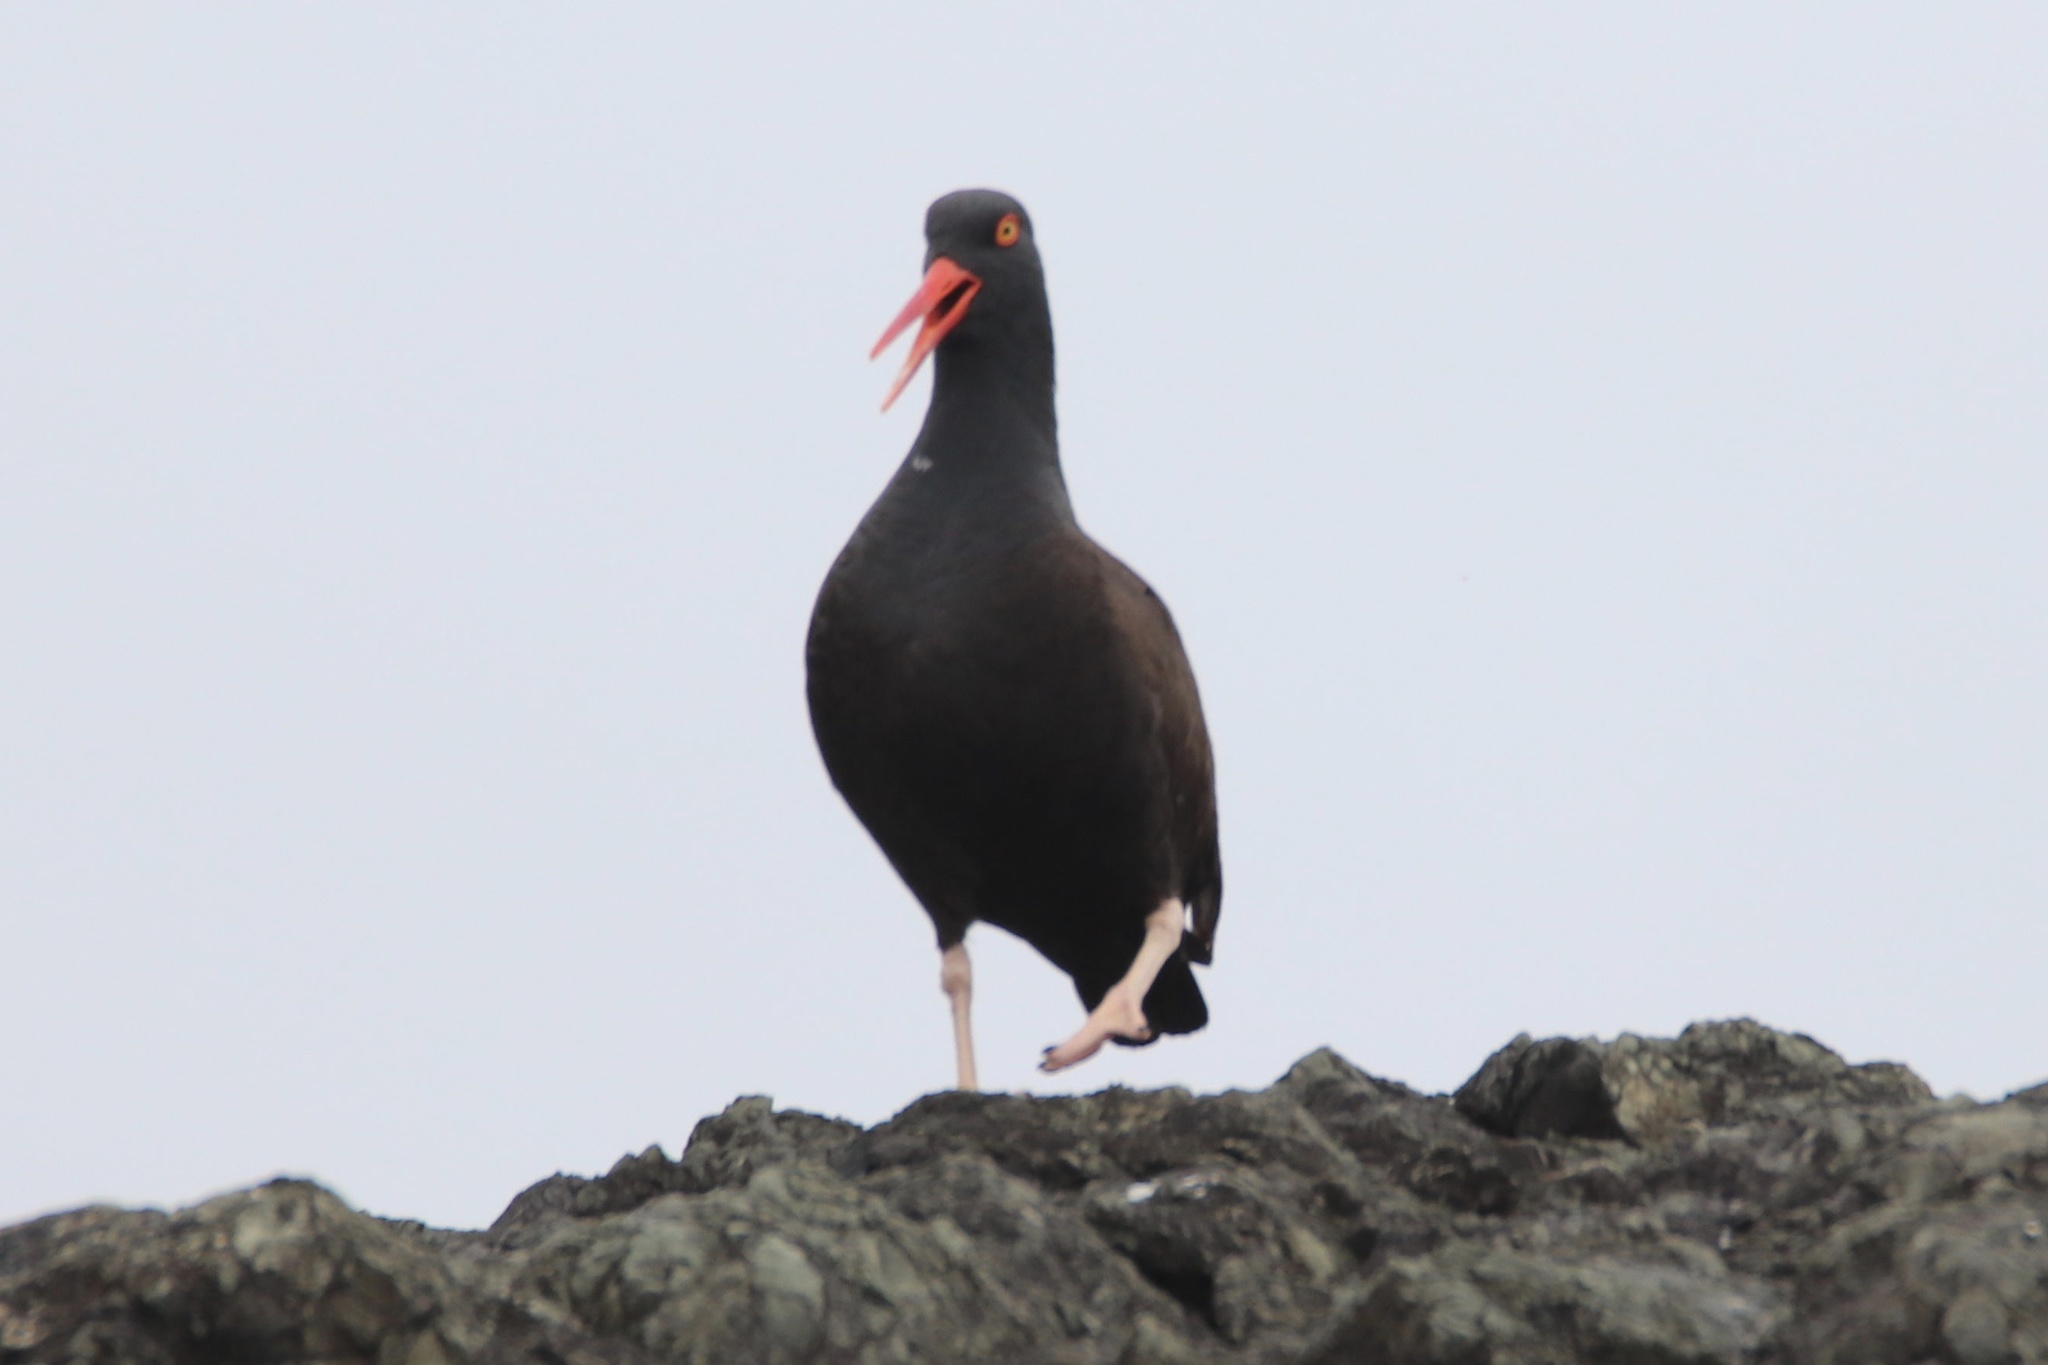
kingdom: Animalia
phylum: Chordata
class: Aves
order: Charadriiformes
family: Haematopodidae
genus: Haematopus
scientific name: Haematopus bachmani
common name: Black oystercatcher
